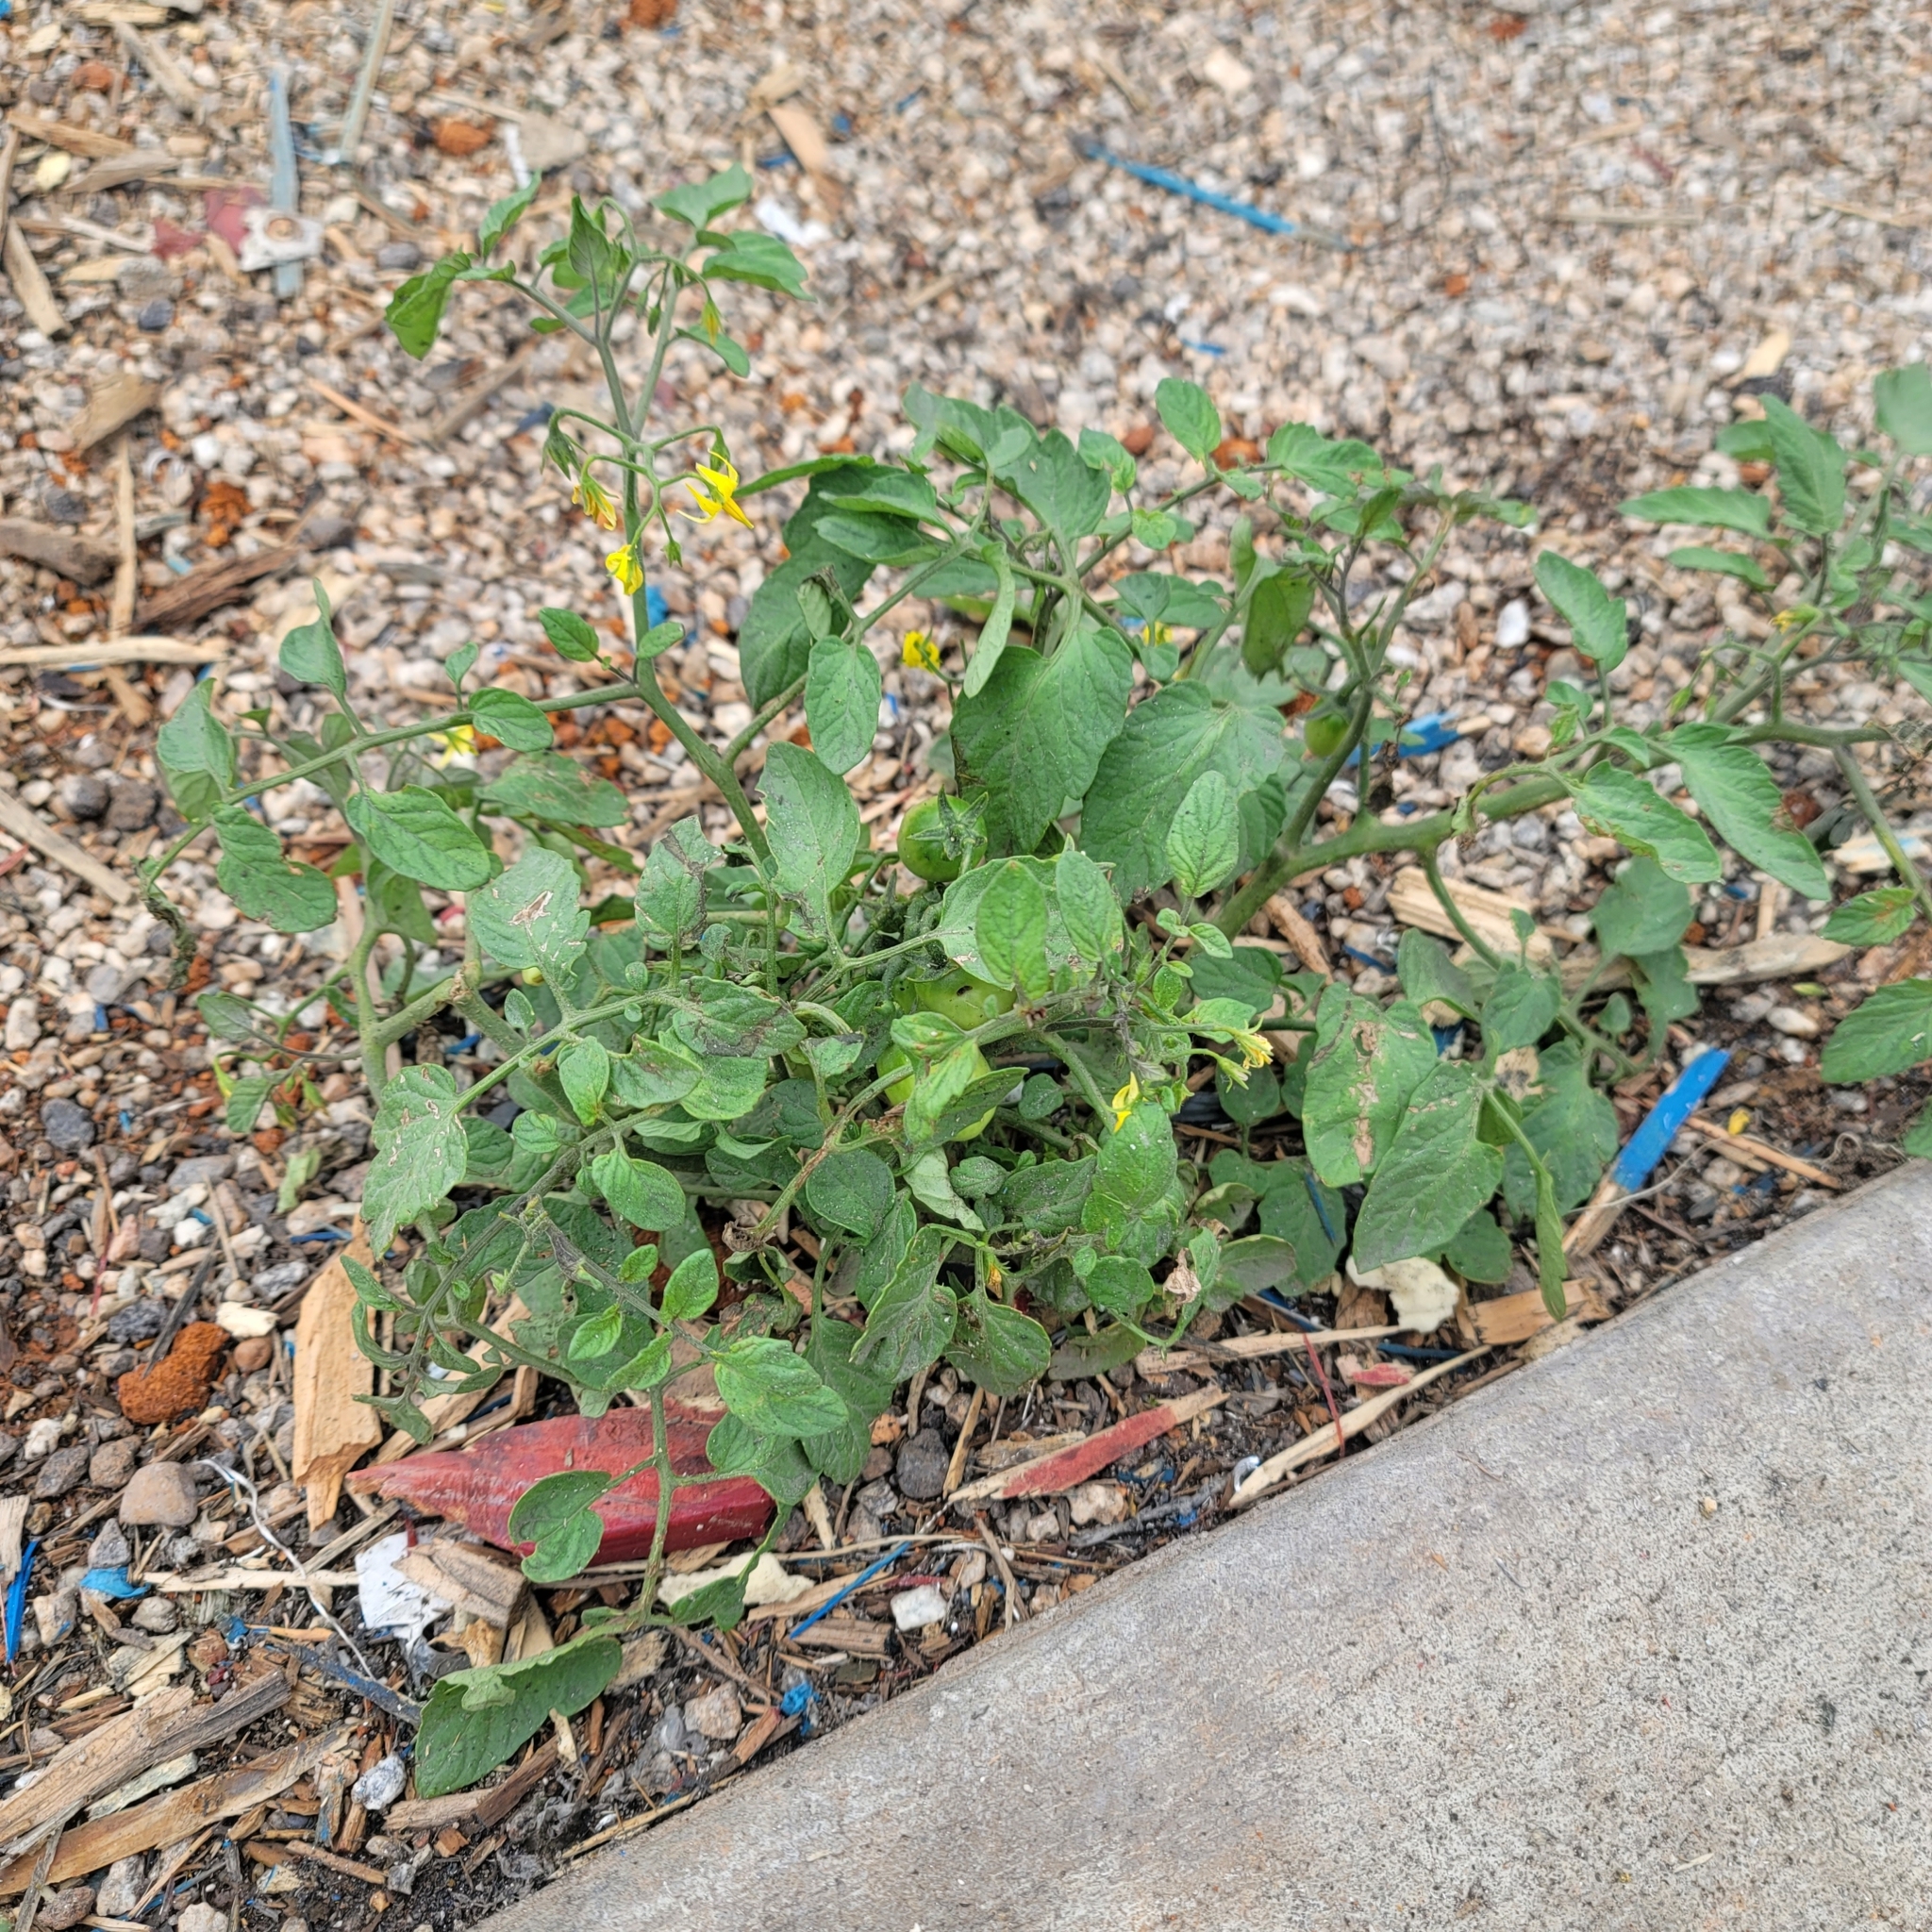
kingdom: Plantae
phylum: Tracheophyta
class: Magnoliopsida
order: Solanales
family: Solanaceae
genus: Solanum
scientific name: Solanum lycopersicum
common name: Garden tomato
